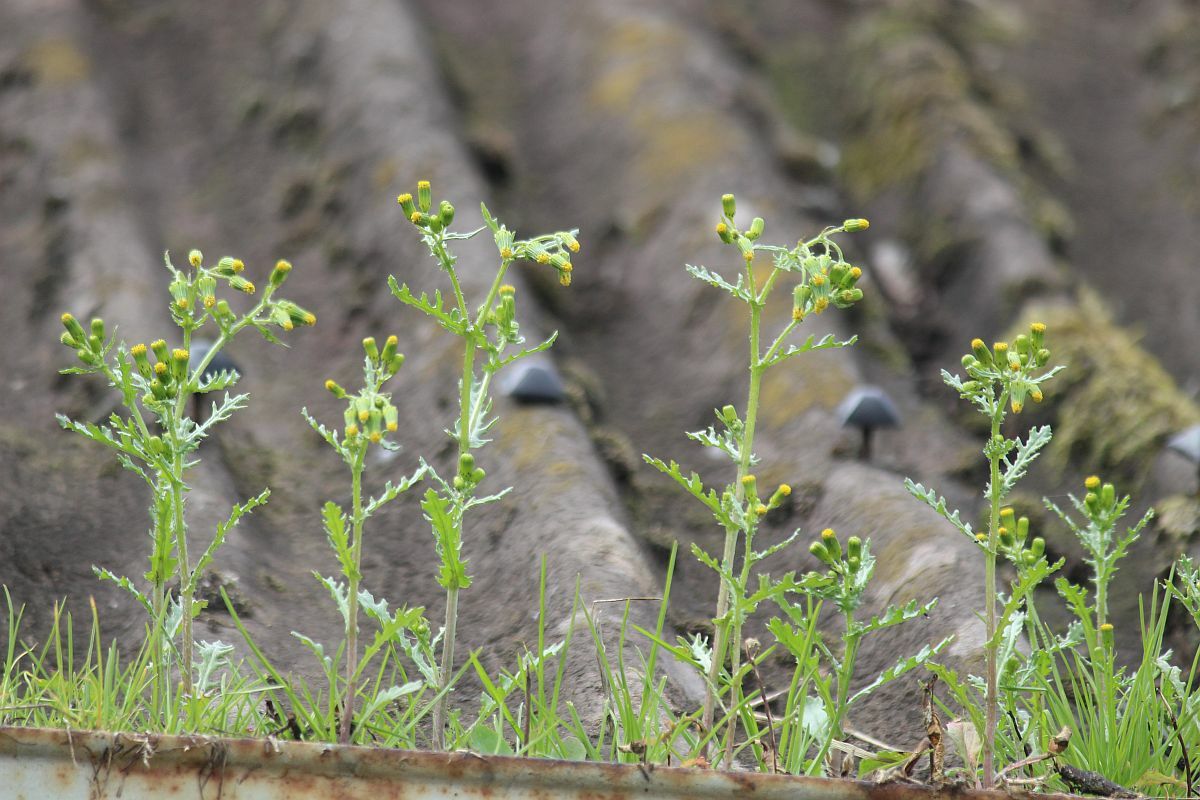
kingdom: Plantae
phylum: Tracheophyta
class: Magnoliopsida
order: Asterales
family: Asteraceae
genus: Senecio
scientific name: Senecio vulgaris
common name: Old-man-in-the-spring
